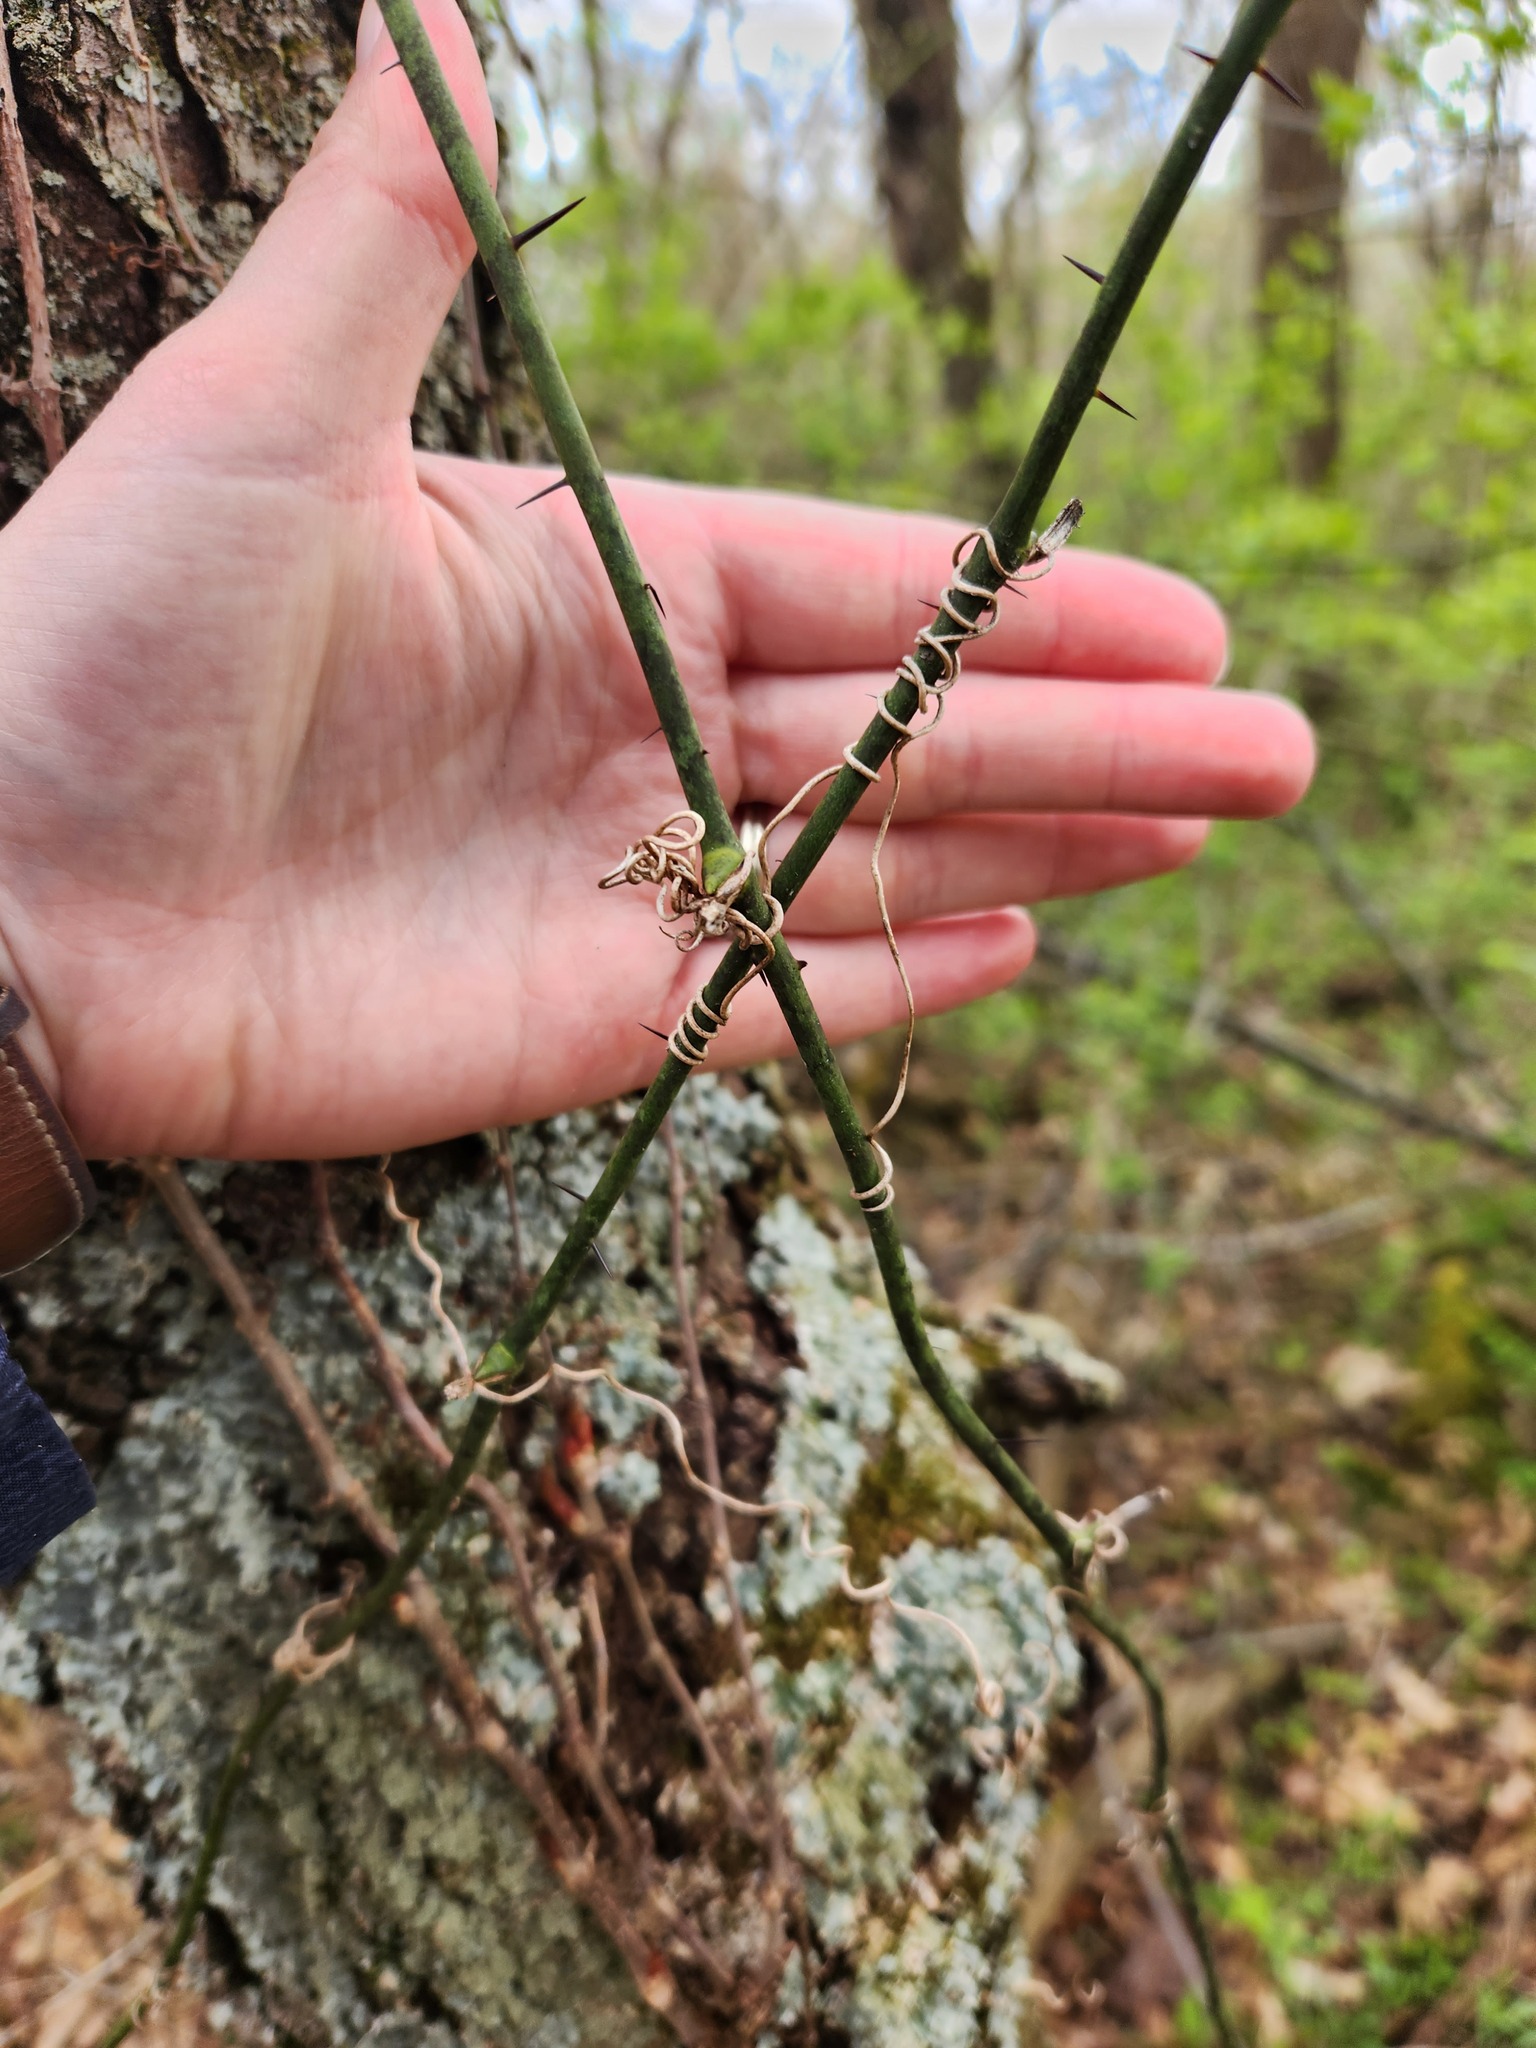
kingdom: Plantae
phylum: Tracheophyta
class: Liliopsida
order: Liliales
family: Smilacaceae
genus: Smilax
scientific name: Smilax tamnoides
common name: Hellfetter
